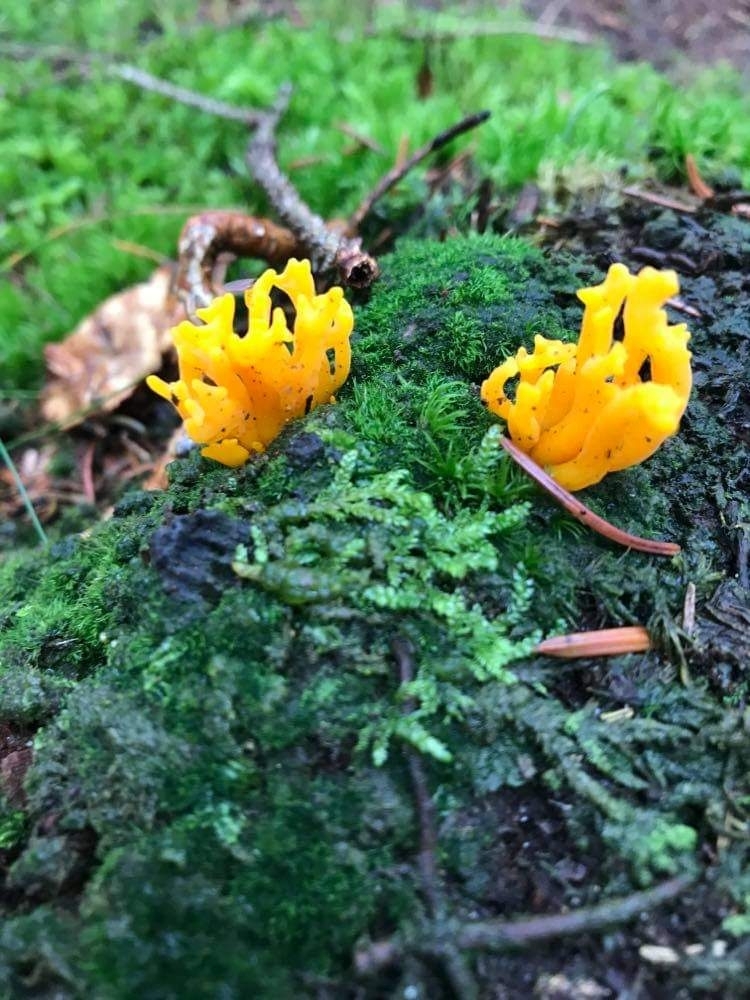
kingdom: Fungi
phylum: Basidiomycota
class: Dacrymycetes
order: Dacrymycetales
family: Dacrymycetaceae
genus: Calocera
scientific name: Calocera viscosa
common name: Yellow stagshorn
